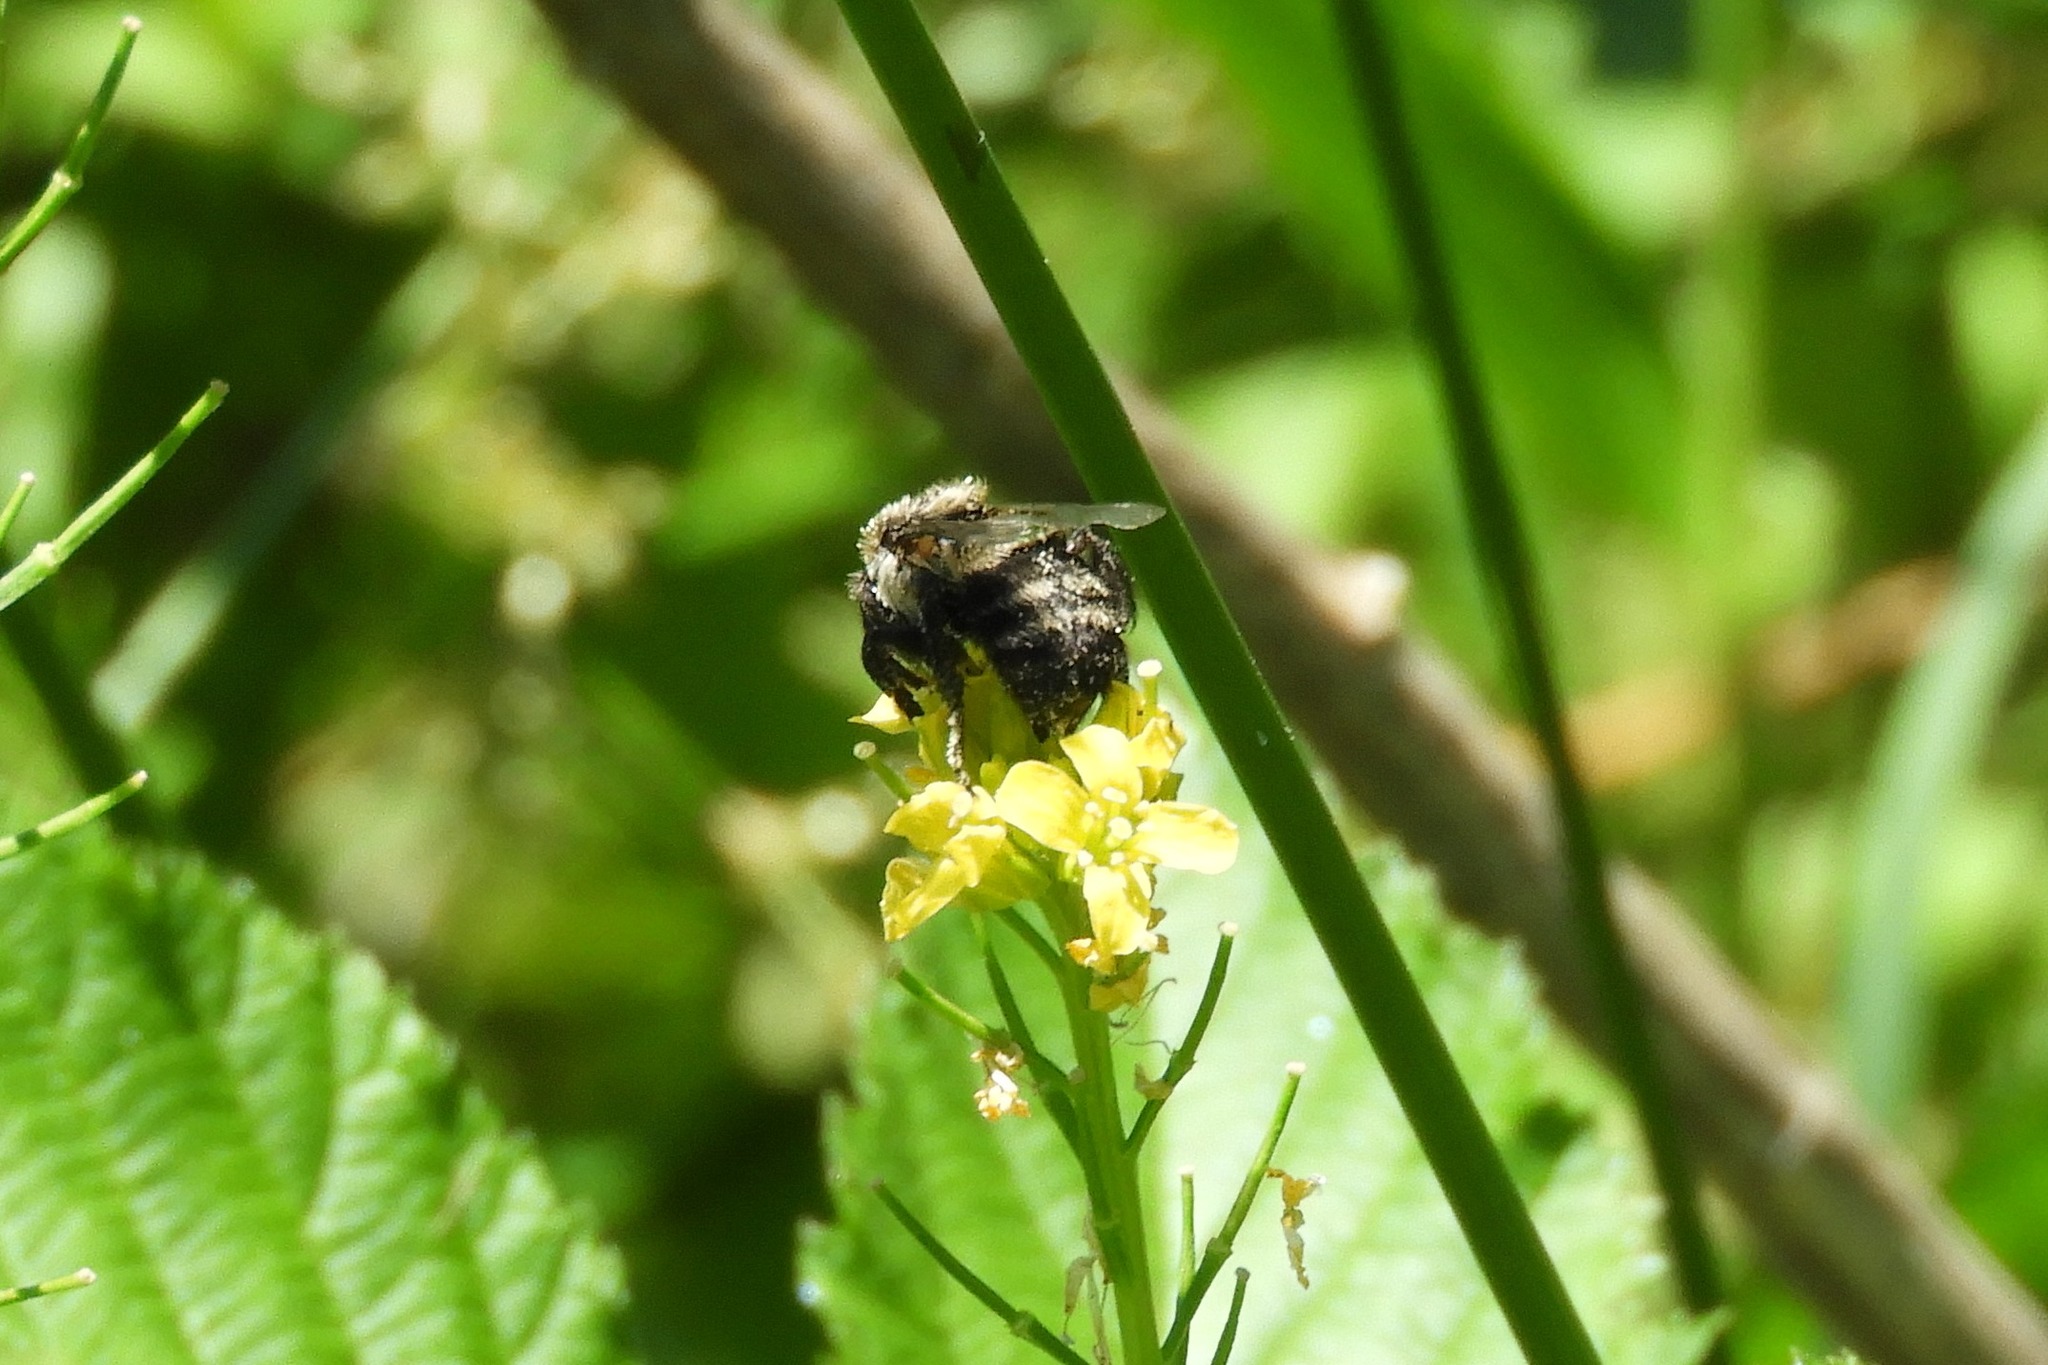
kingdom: Animalia
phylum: Arthropoda
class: Insecta
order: Hymenoptera
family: Apidae
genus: Bombus
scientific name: Bombus impatiens
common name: Common eastern bumble bee
